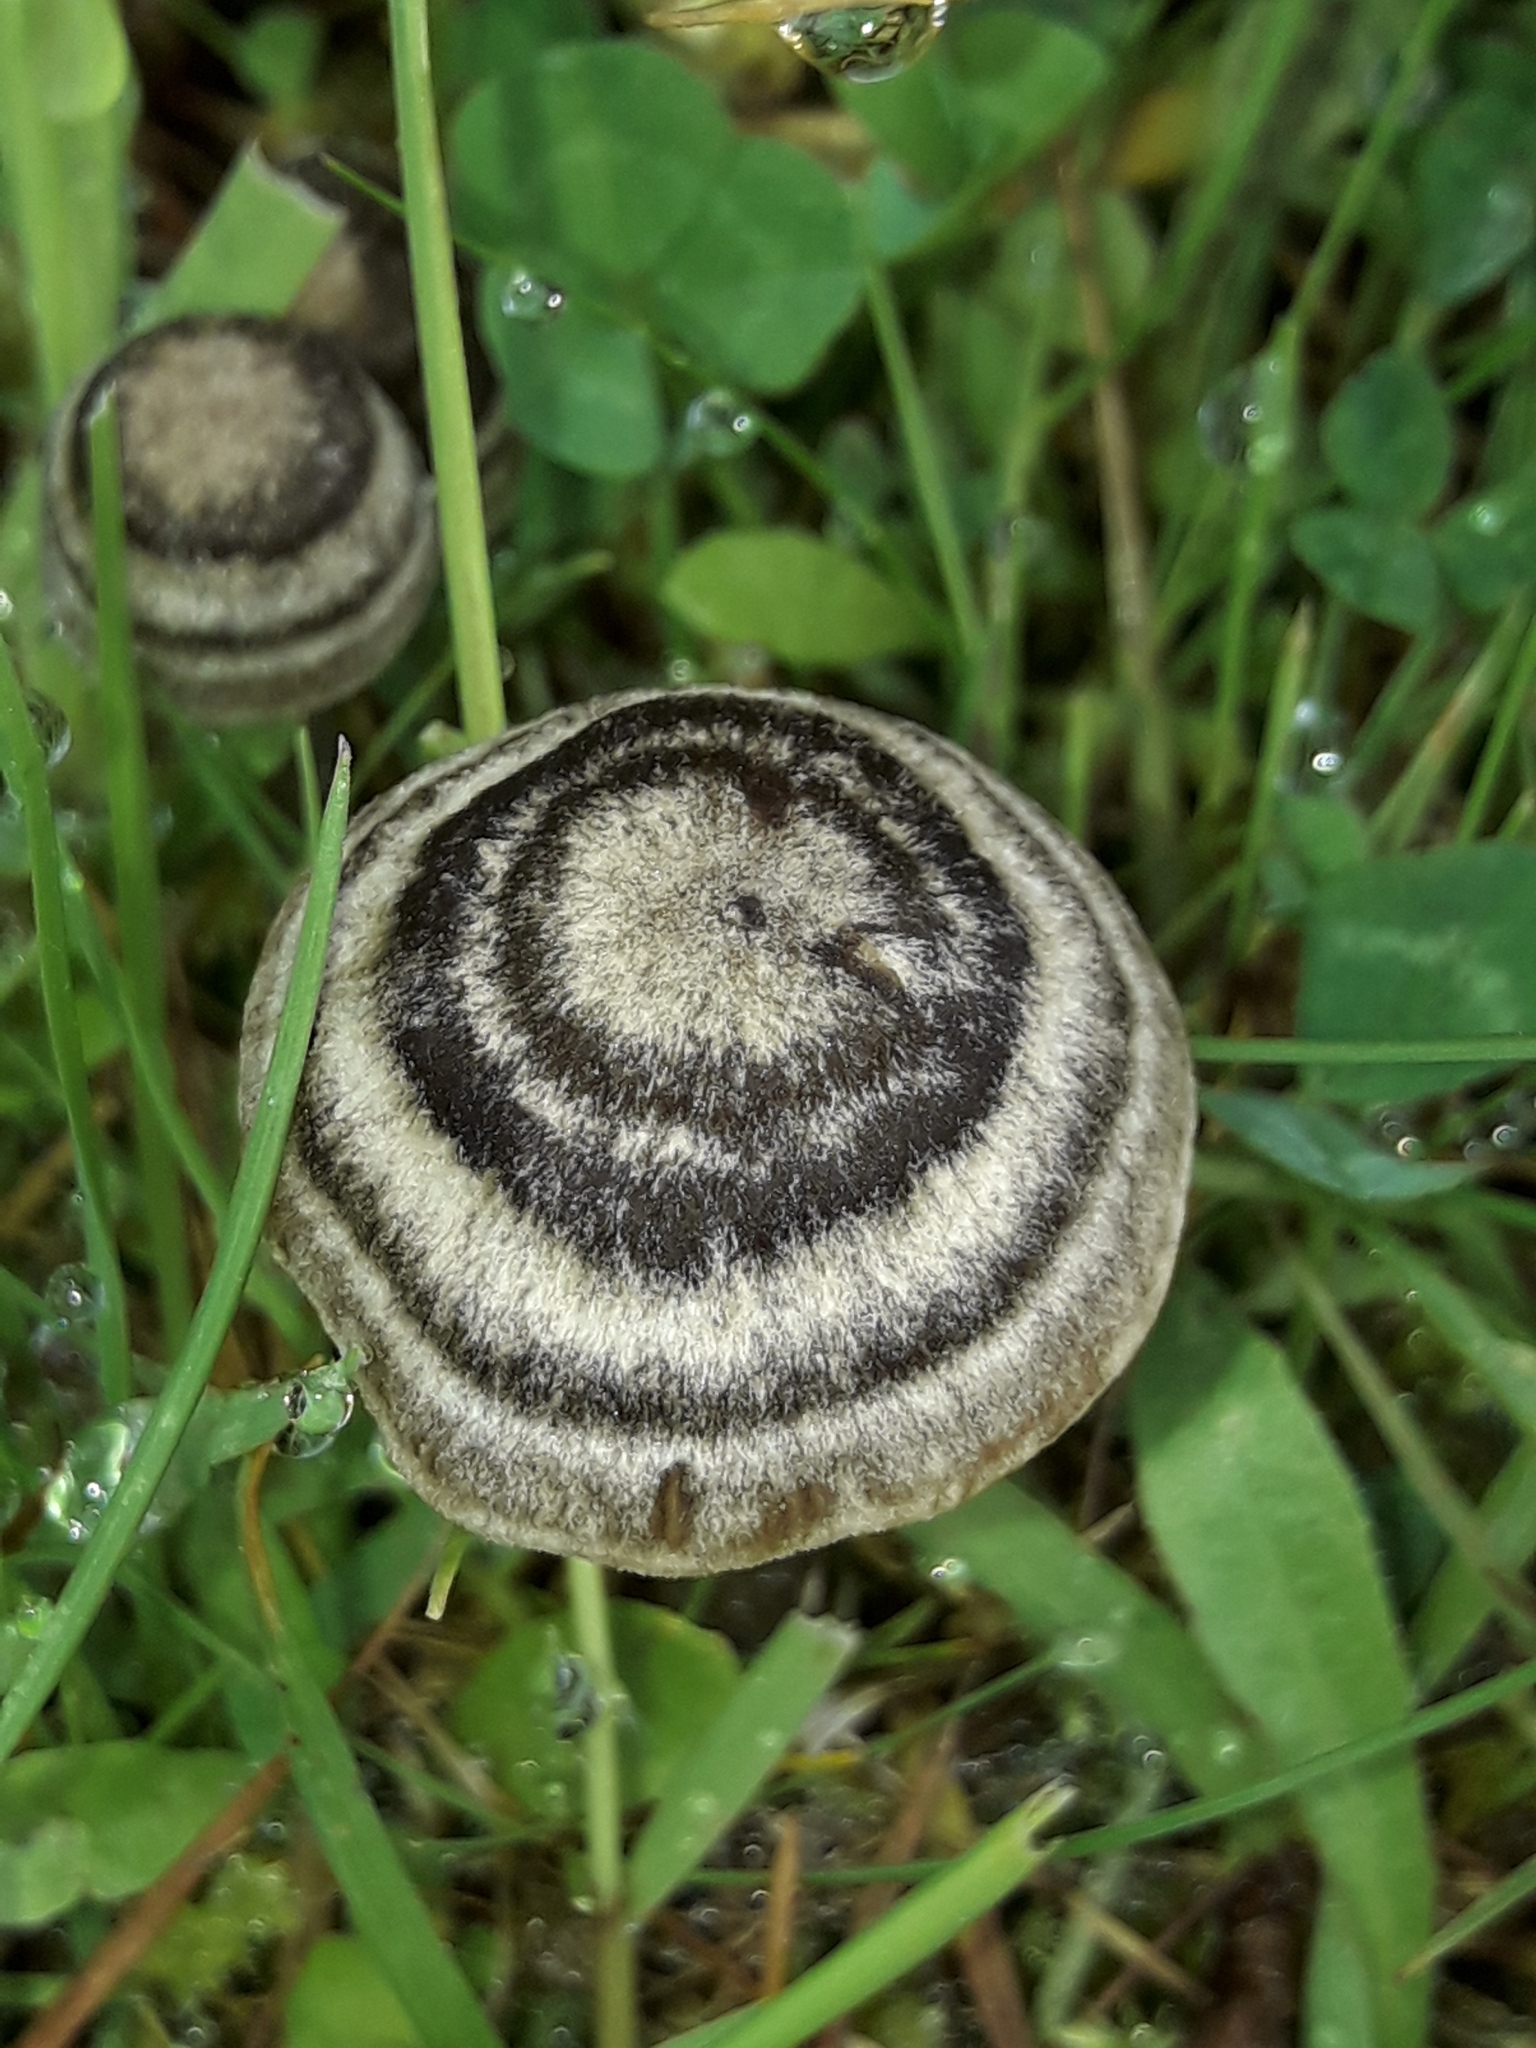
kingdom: Fungi
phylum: Basidiomycota
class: Agaricomycetes
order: Agaricales
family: Entolomataceae
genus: Entoloma
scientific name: Entoloma perzonatum
